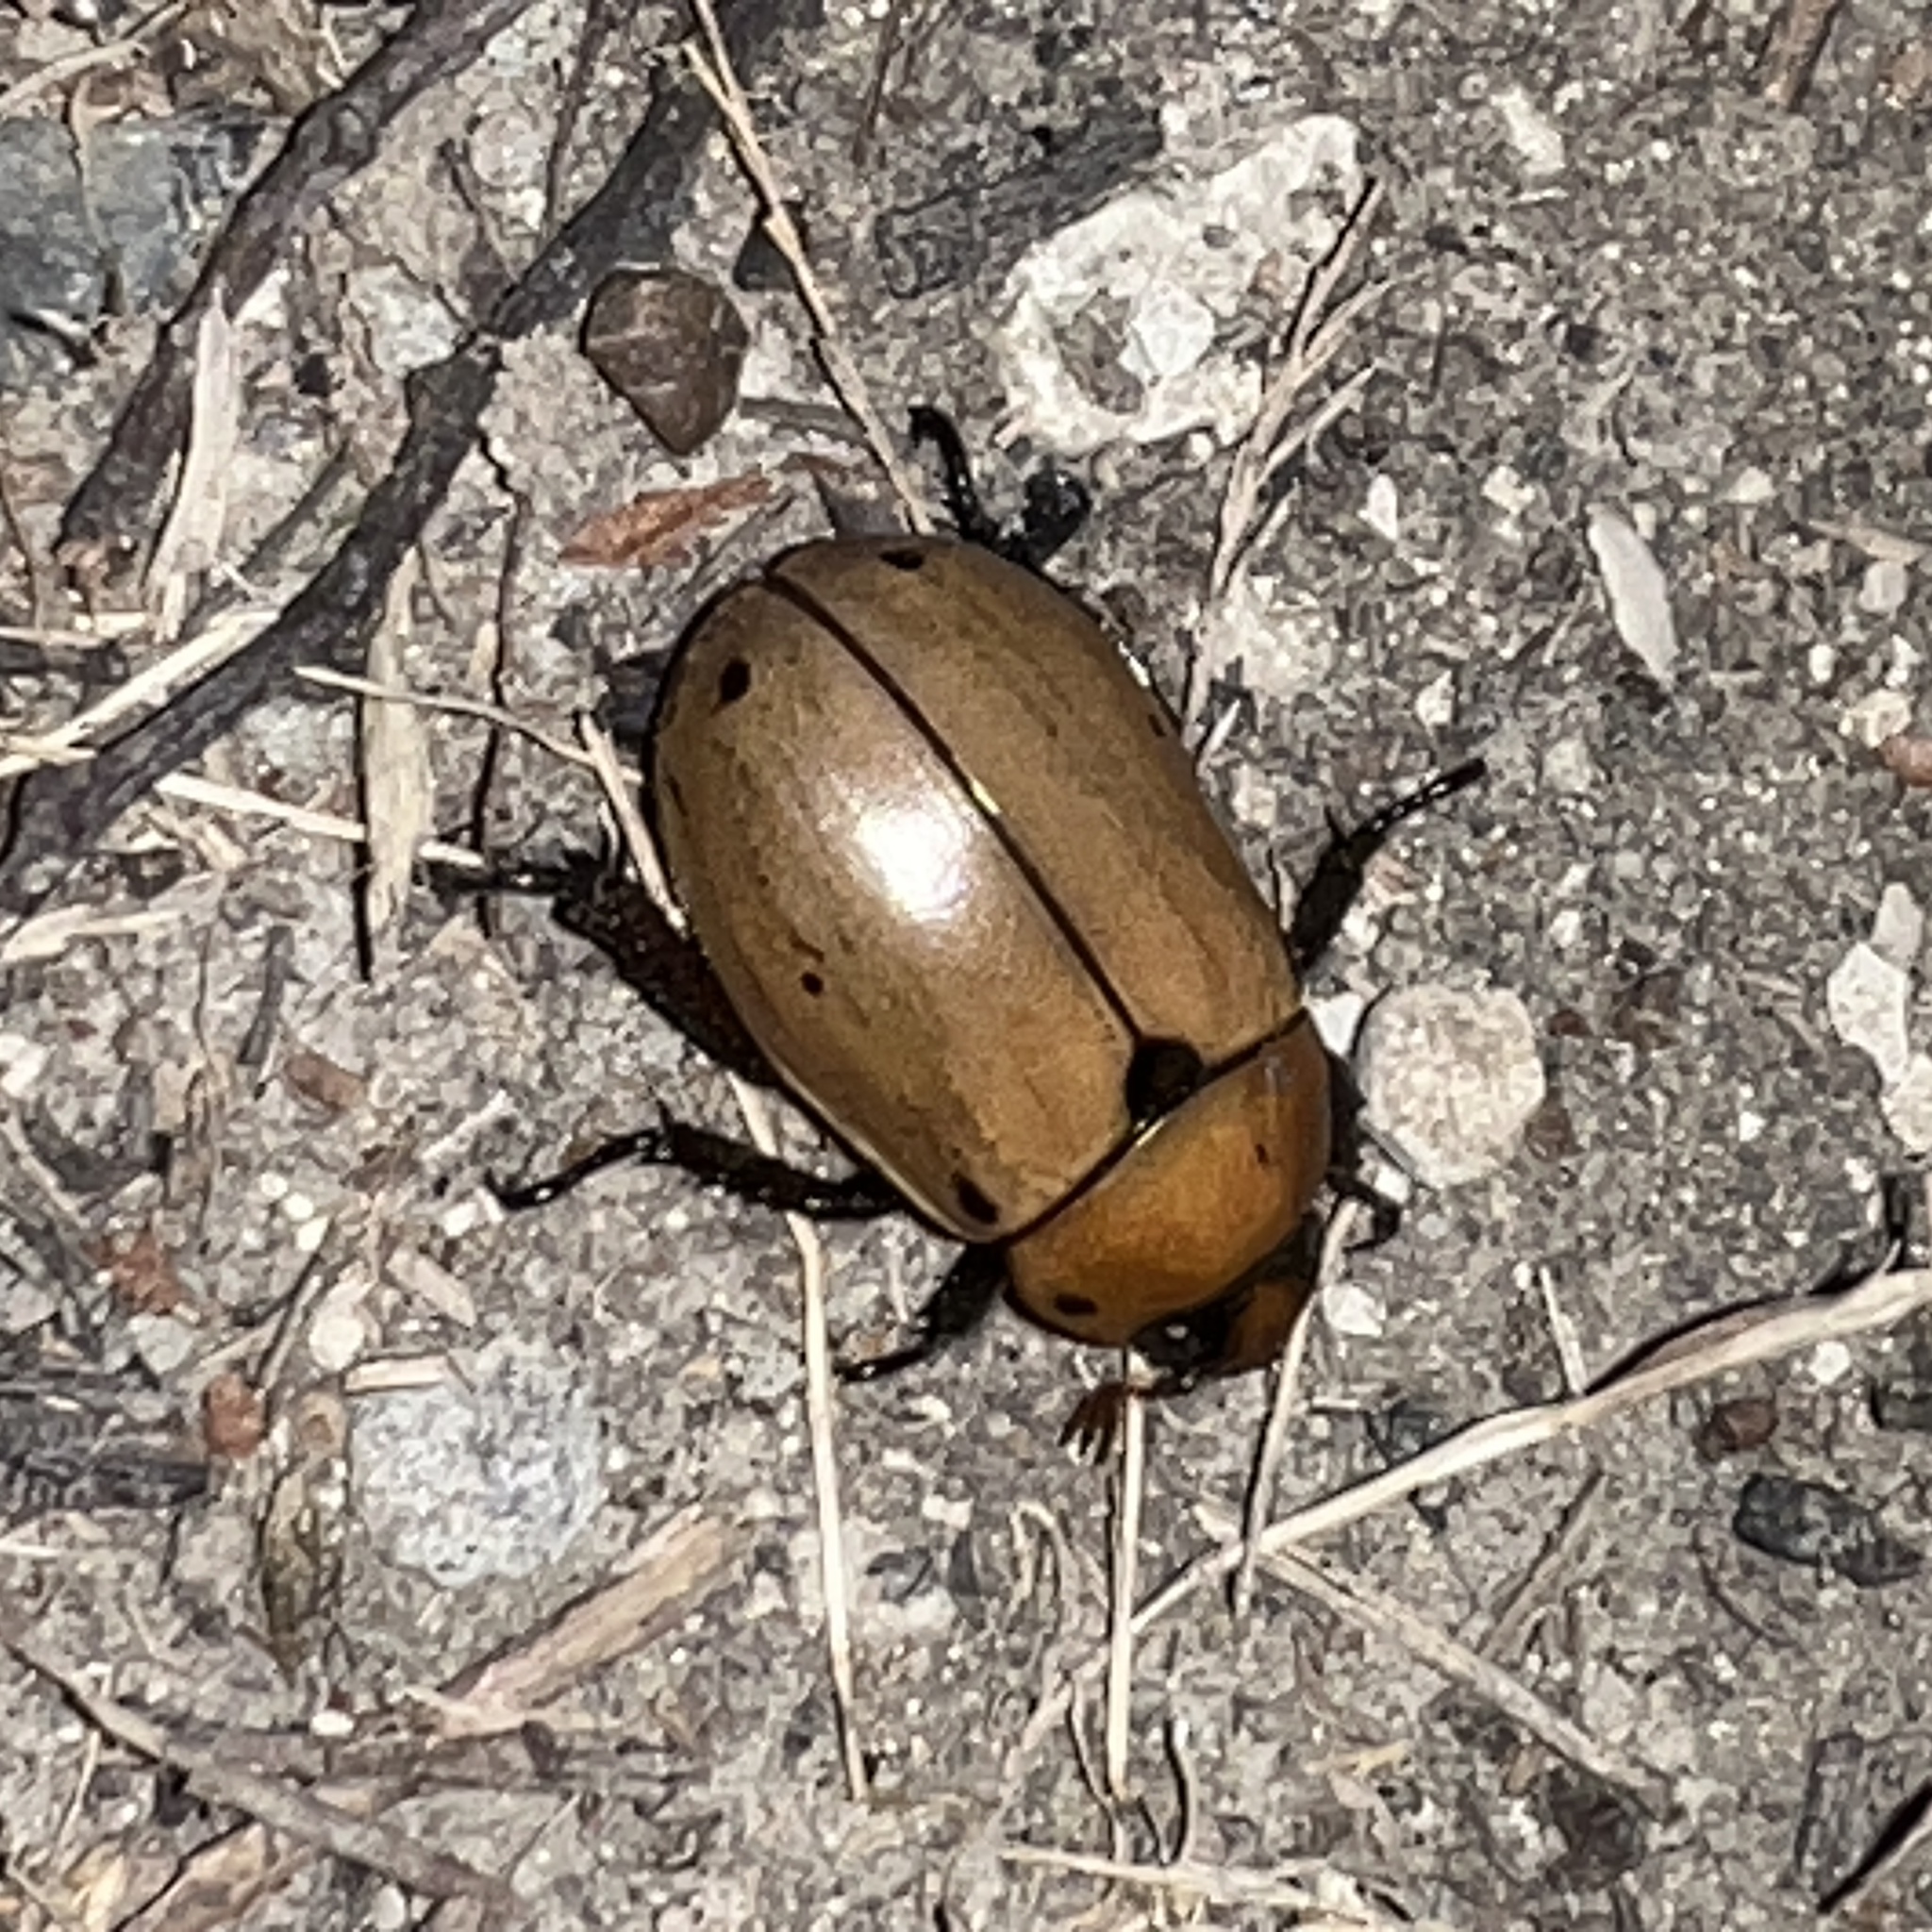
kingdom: Animalia
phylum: Arthropoda
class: Insecta
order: Coleoptera
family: Scarabaeidae
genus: Pelidnota
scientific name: Pelidnota punctata
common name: Grapevine beetle
